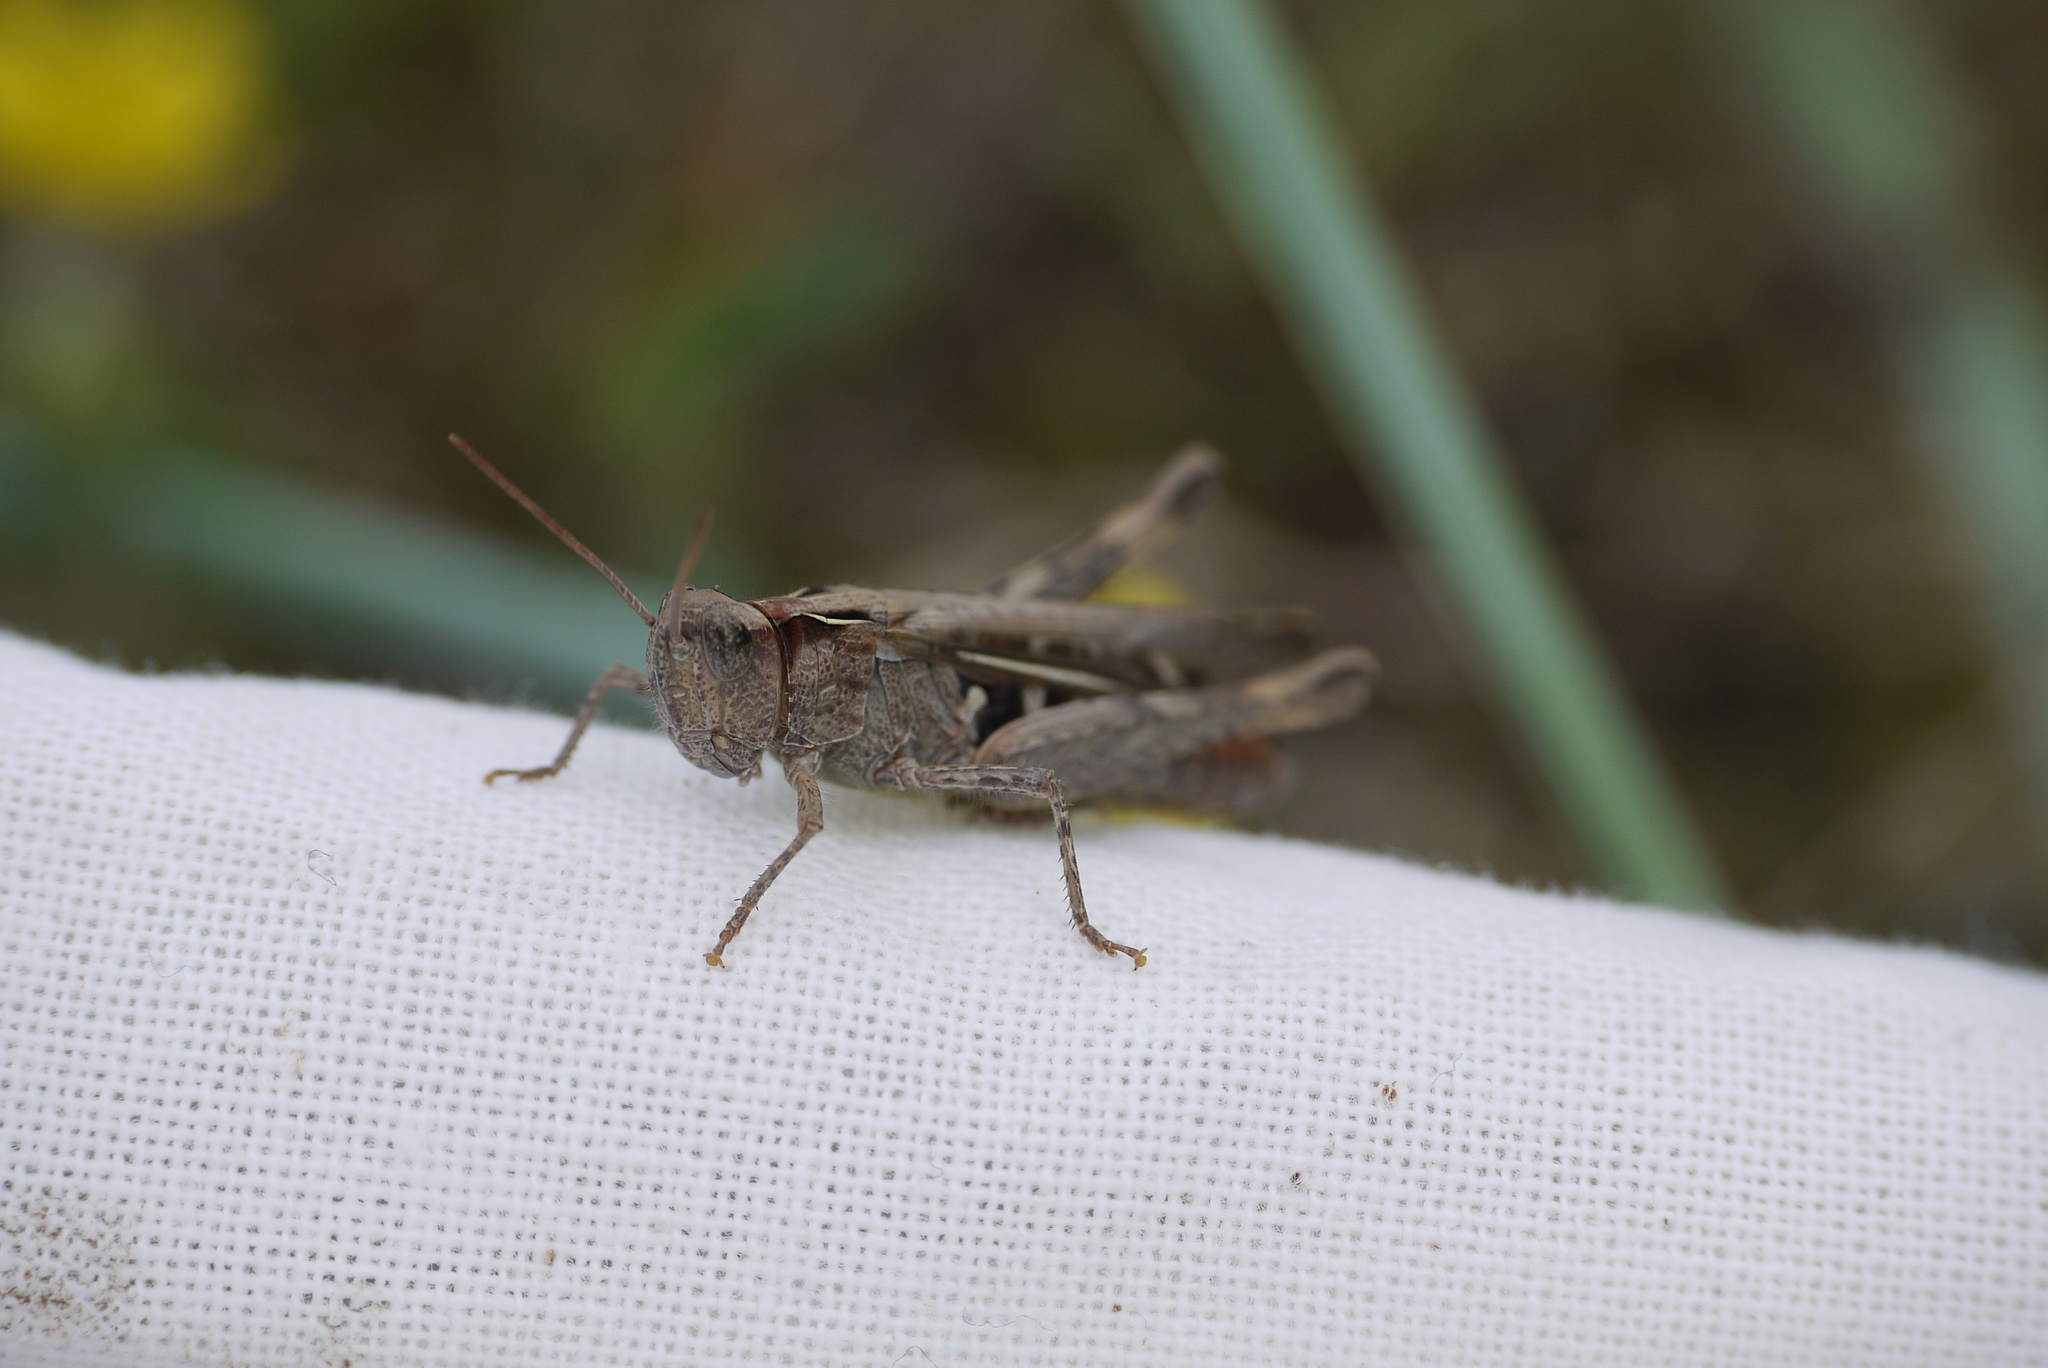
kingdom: Animalia
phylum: Arthropoda
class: Insecta
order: Orthoptera
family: Acrididae
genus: Chorthippus
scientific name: Chorthippus brunneus
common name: Field grasshopper
